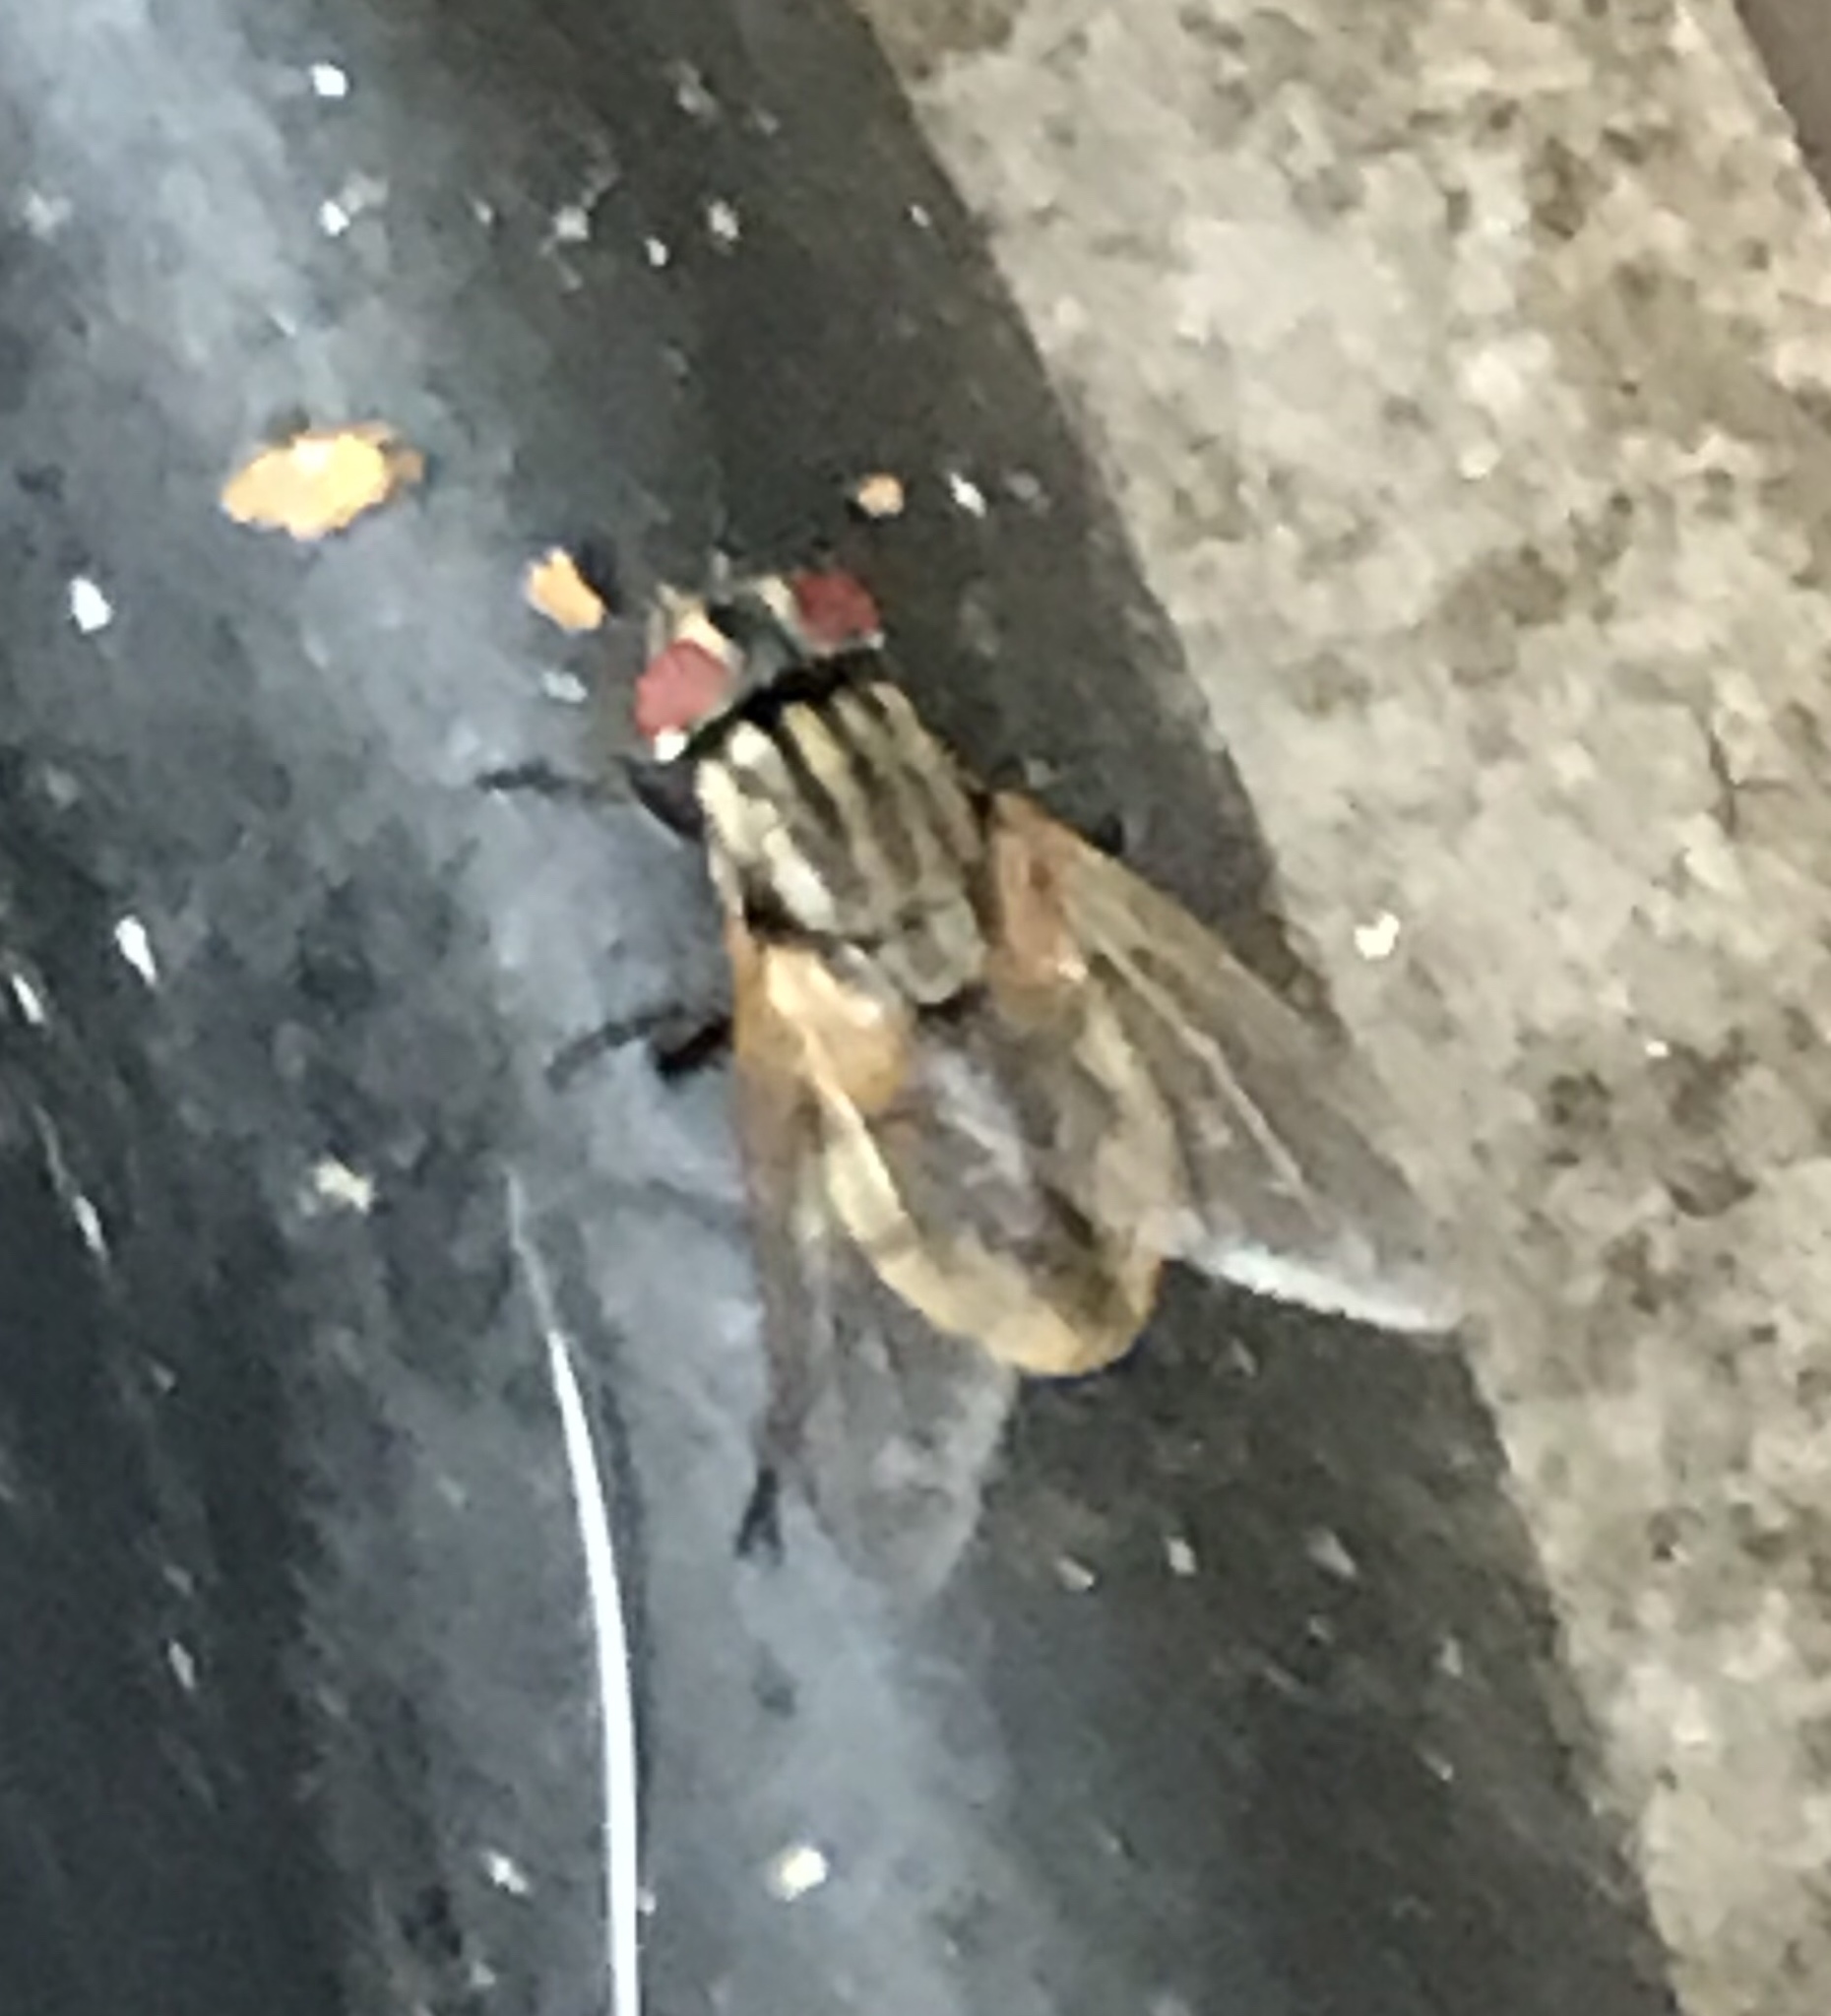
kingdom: Animalia
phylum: Arthropoda
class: Insecta
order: Diptera
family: Muscidae
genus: Musca
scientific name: Musca domestica
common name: House fly
